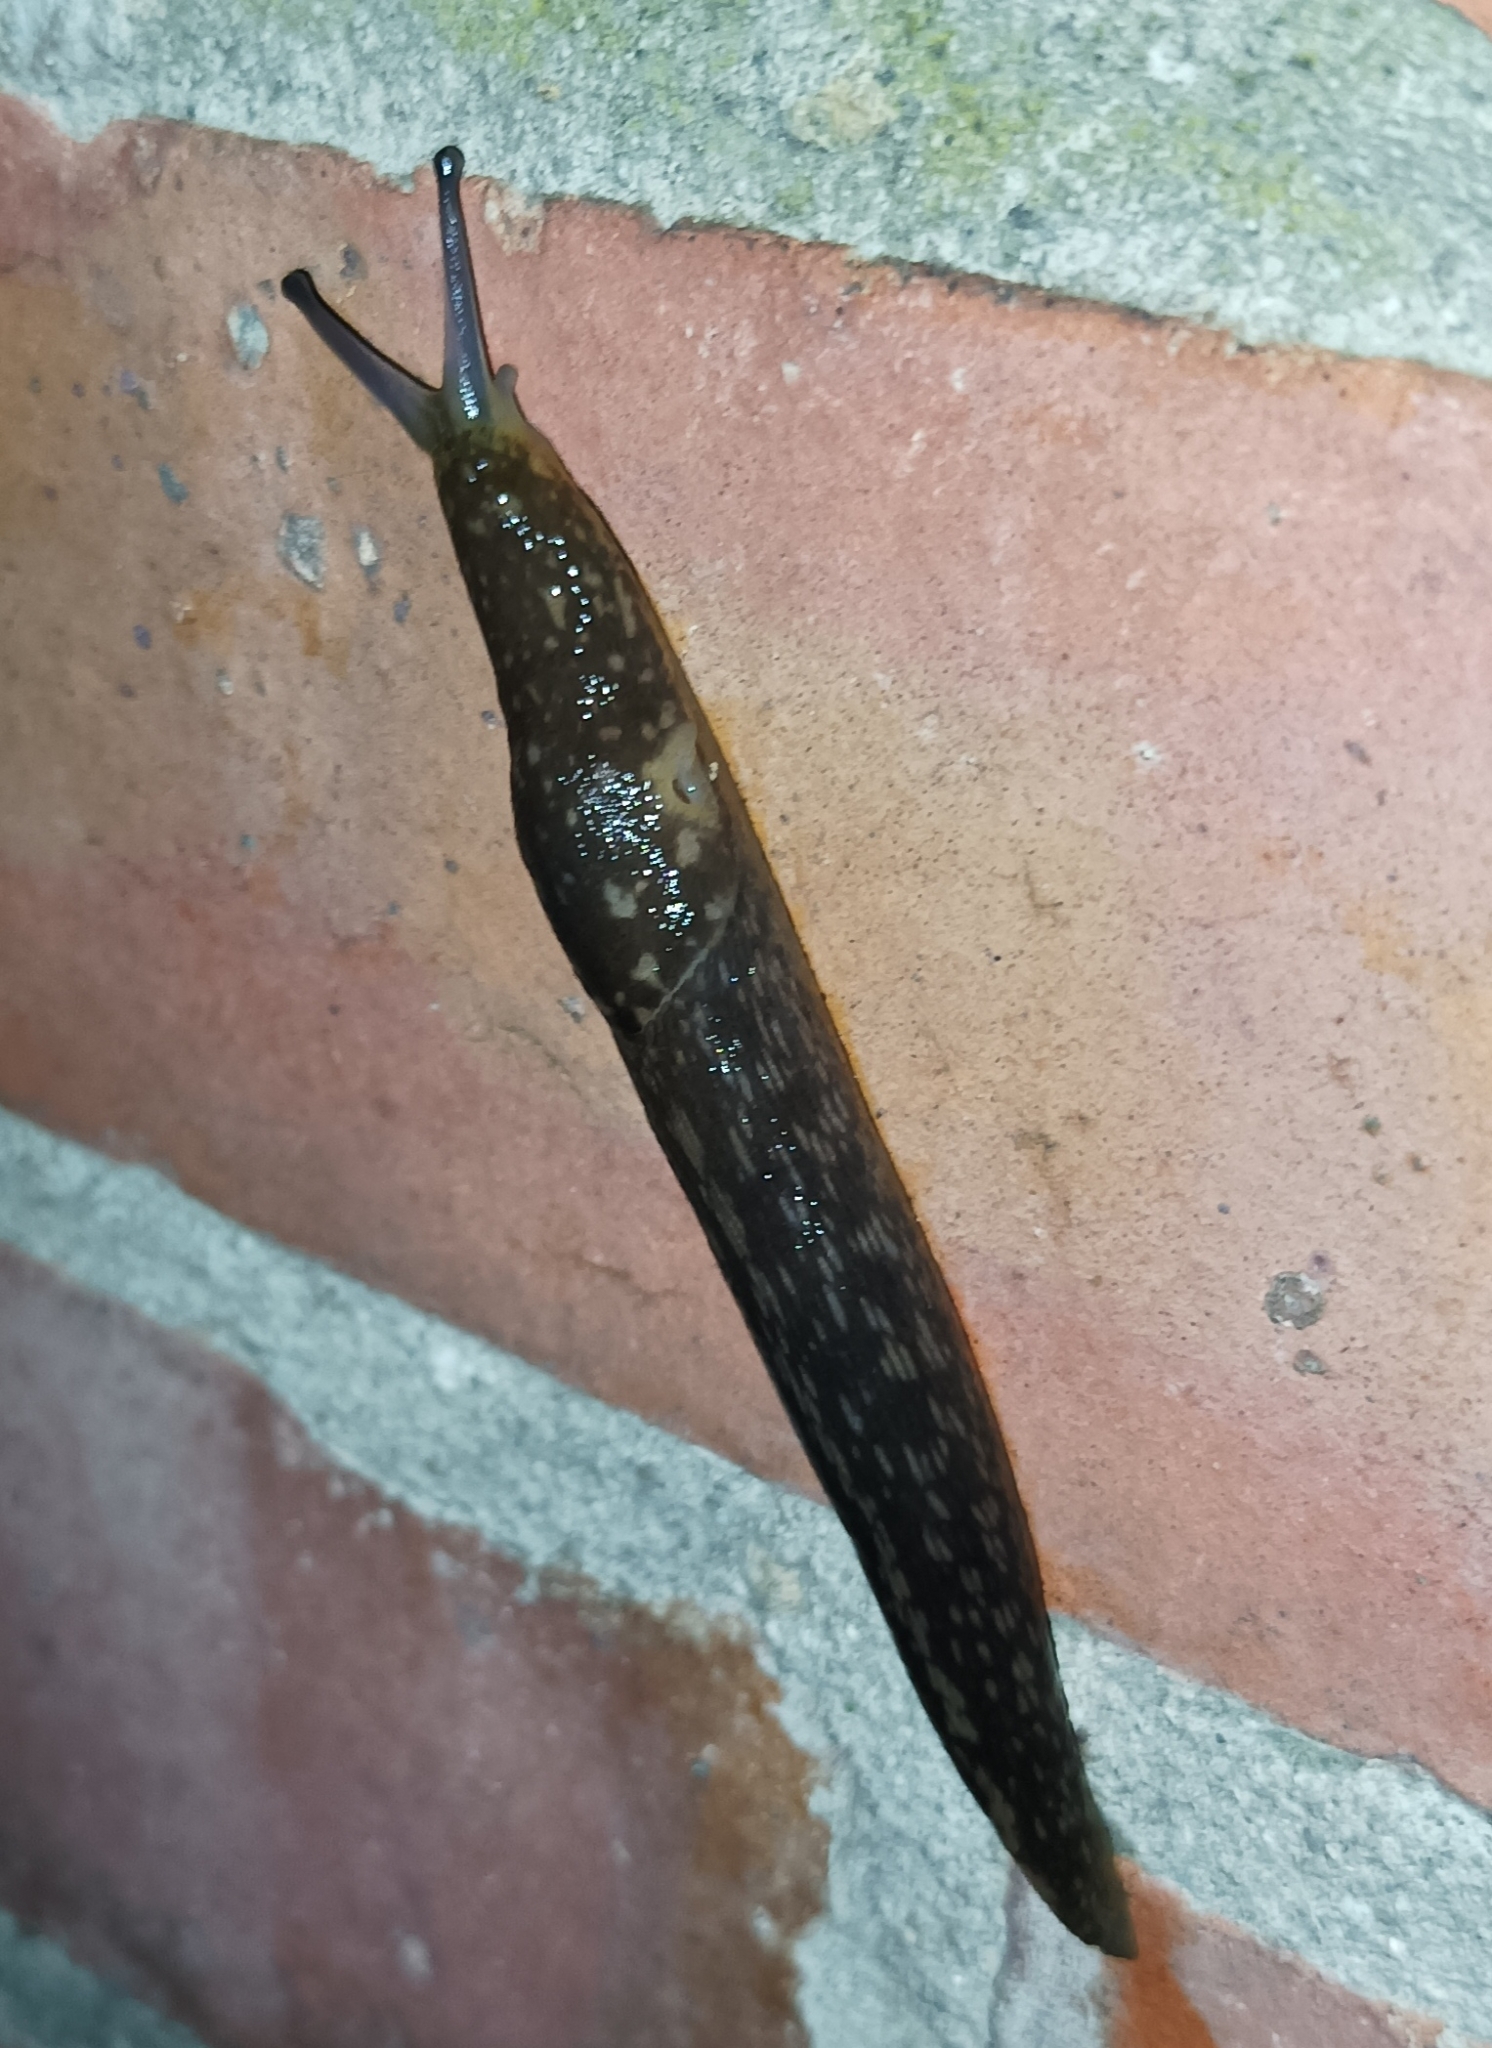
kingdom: Animalia
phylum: Mollusca
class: Gastropoda
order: Stylommatophora
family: Limacidae
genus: Limacus
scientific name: Limacus flavus
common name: Yellow gardenslug
